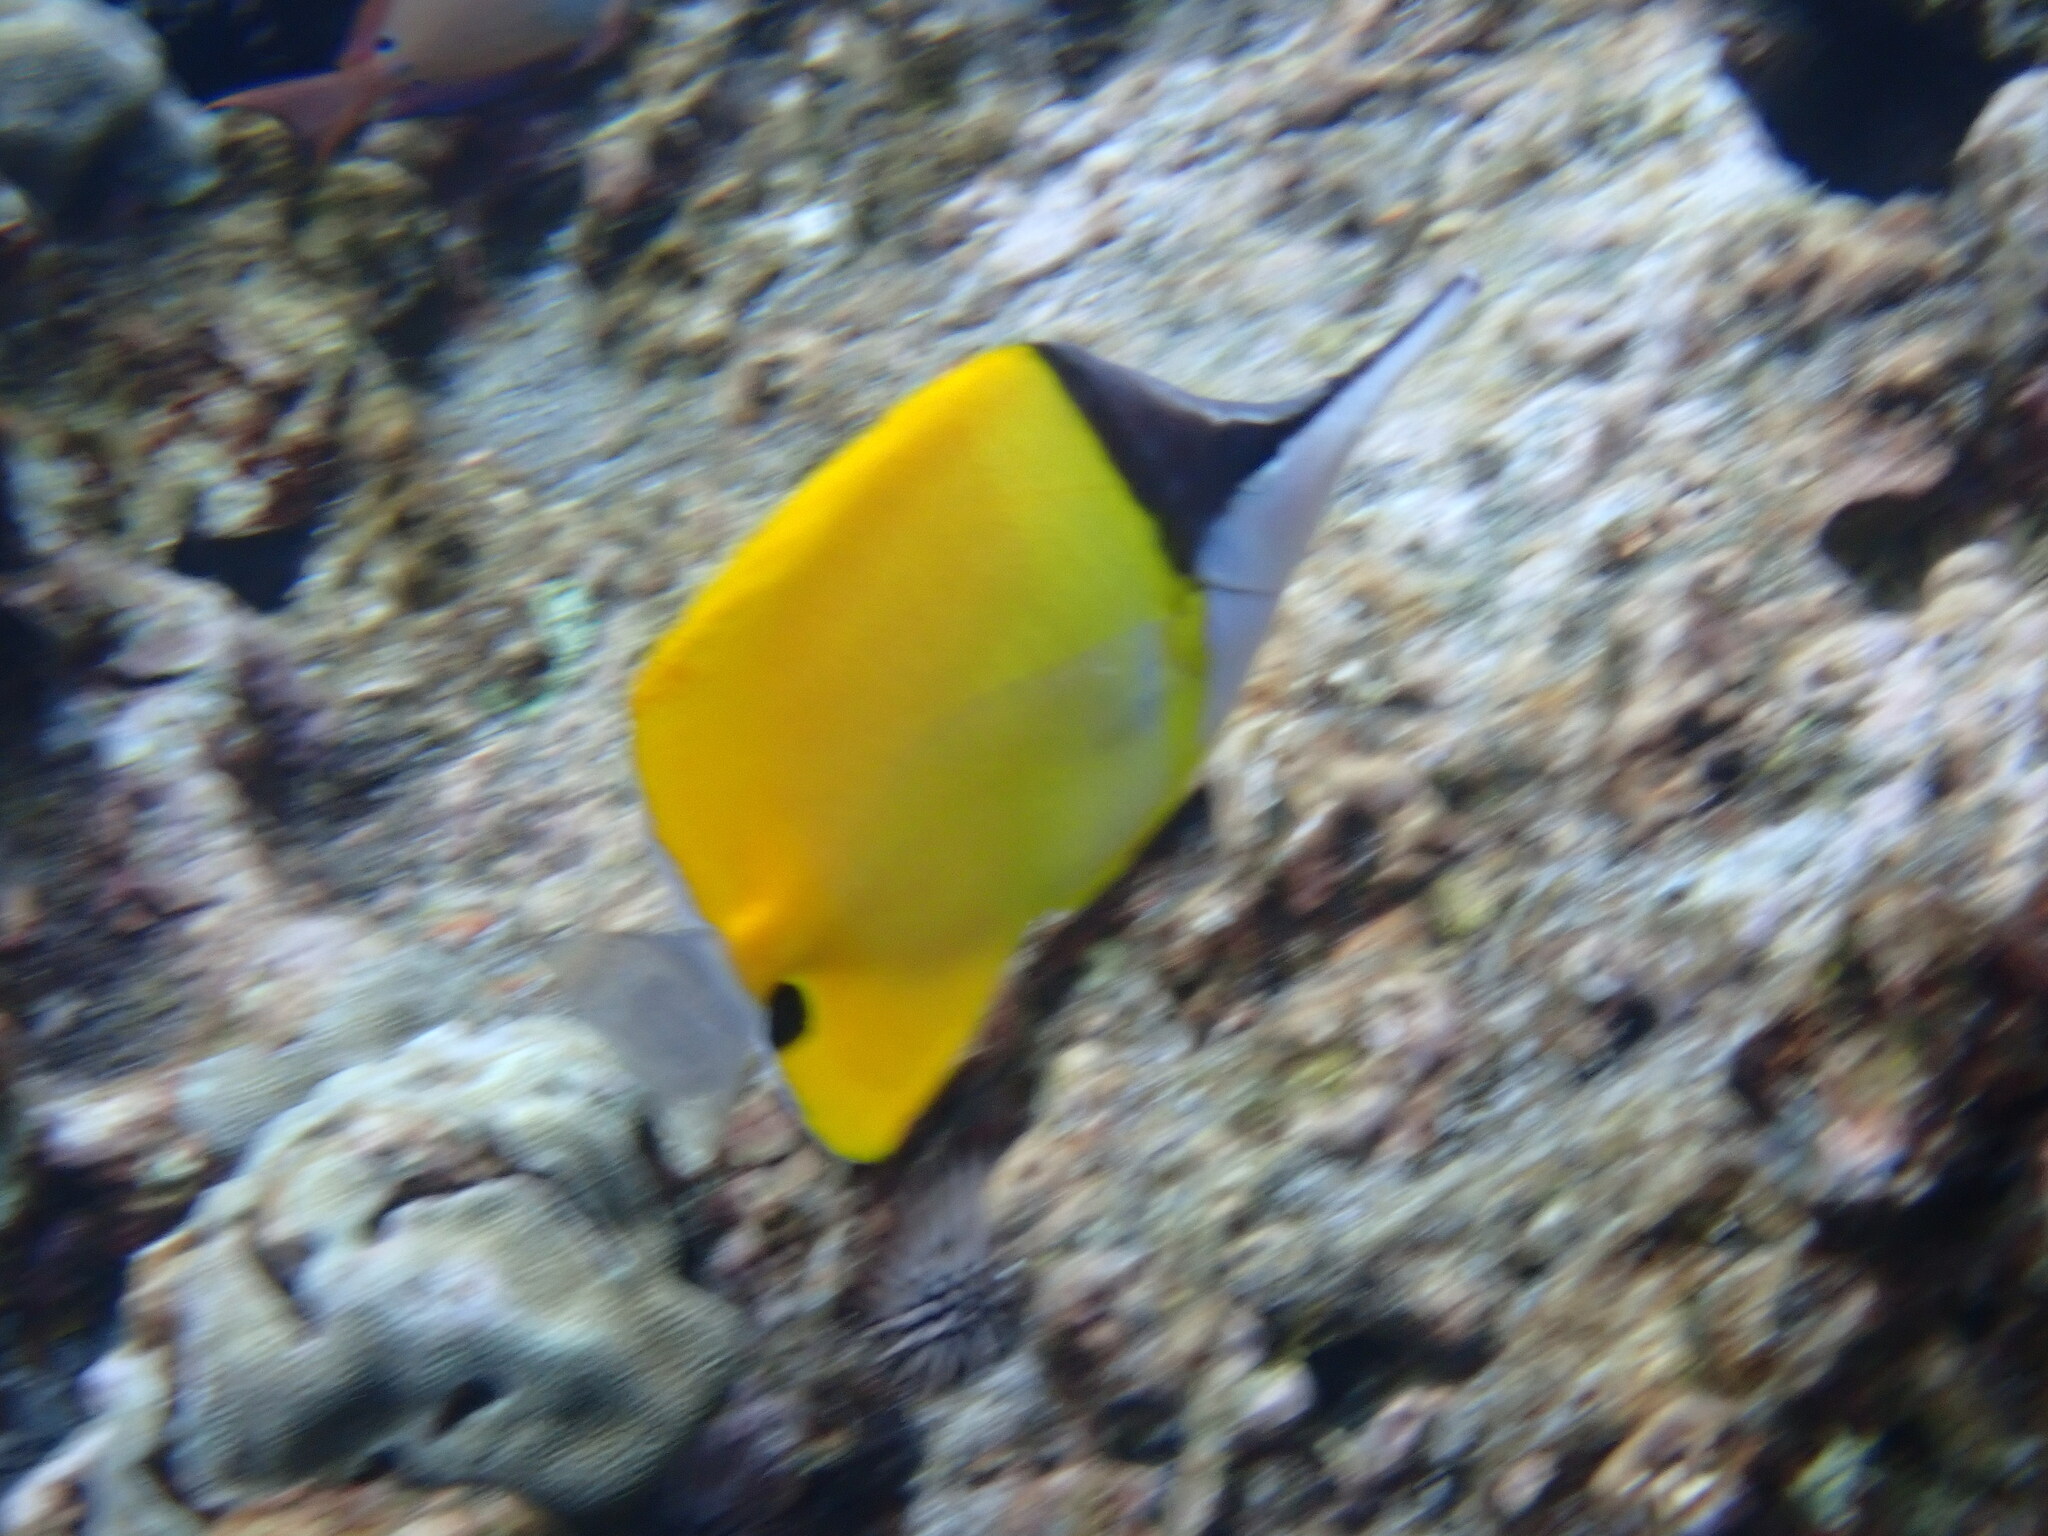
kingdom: Animalia
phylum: Chordata
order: Perciformes
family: Chaetodontidae
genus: Forcipiger
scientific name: Forcipiger flavissimus
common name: Forcepsfish
